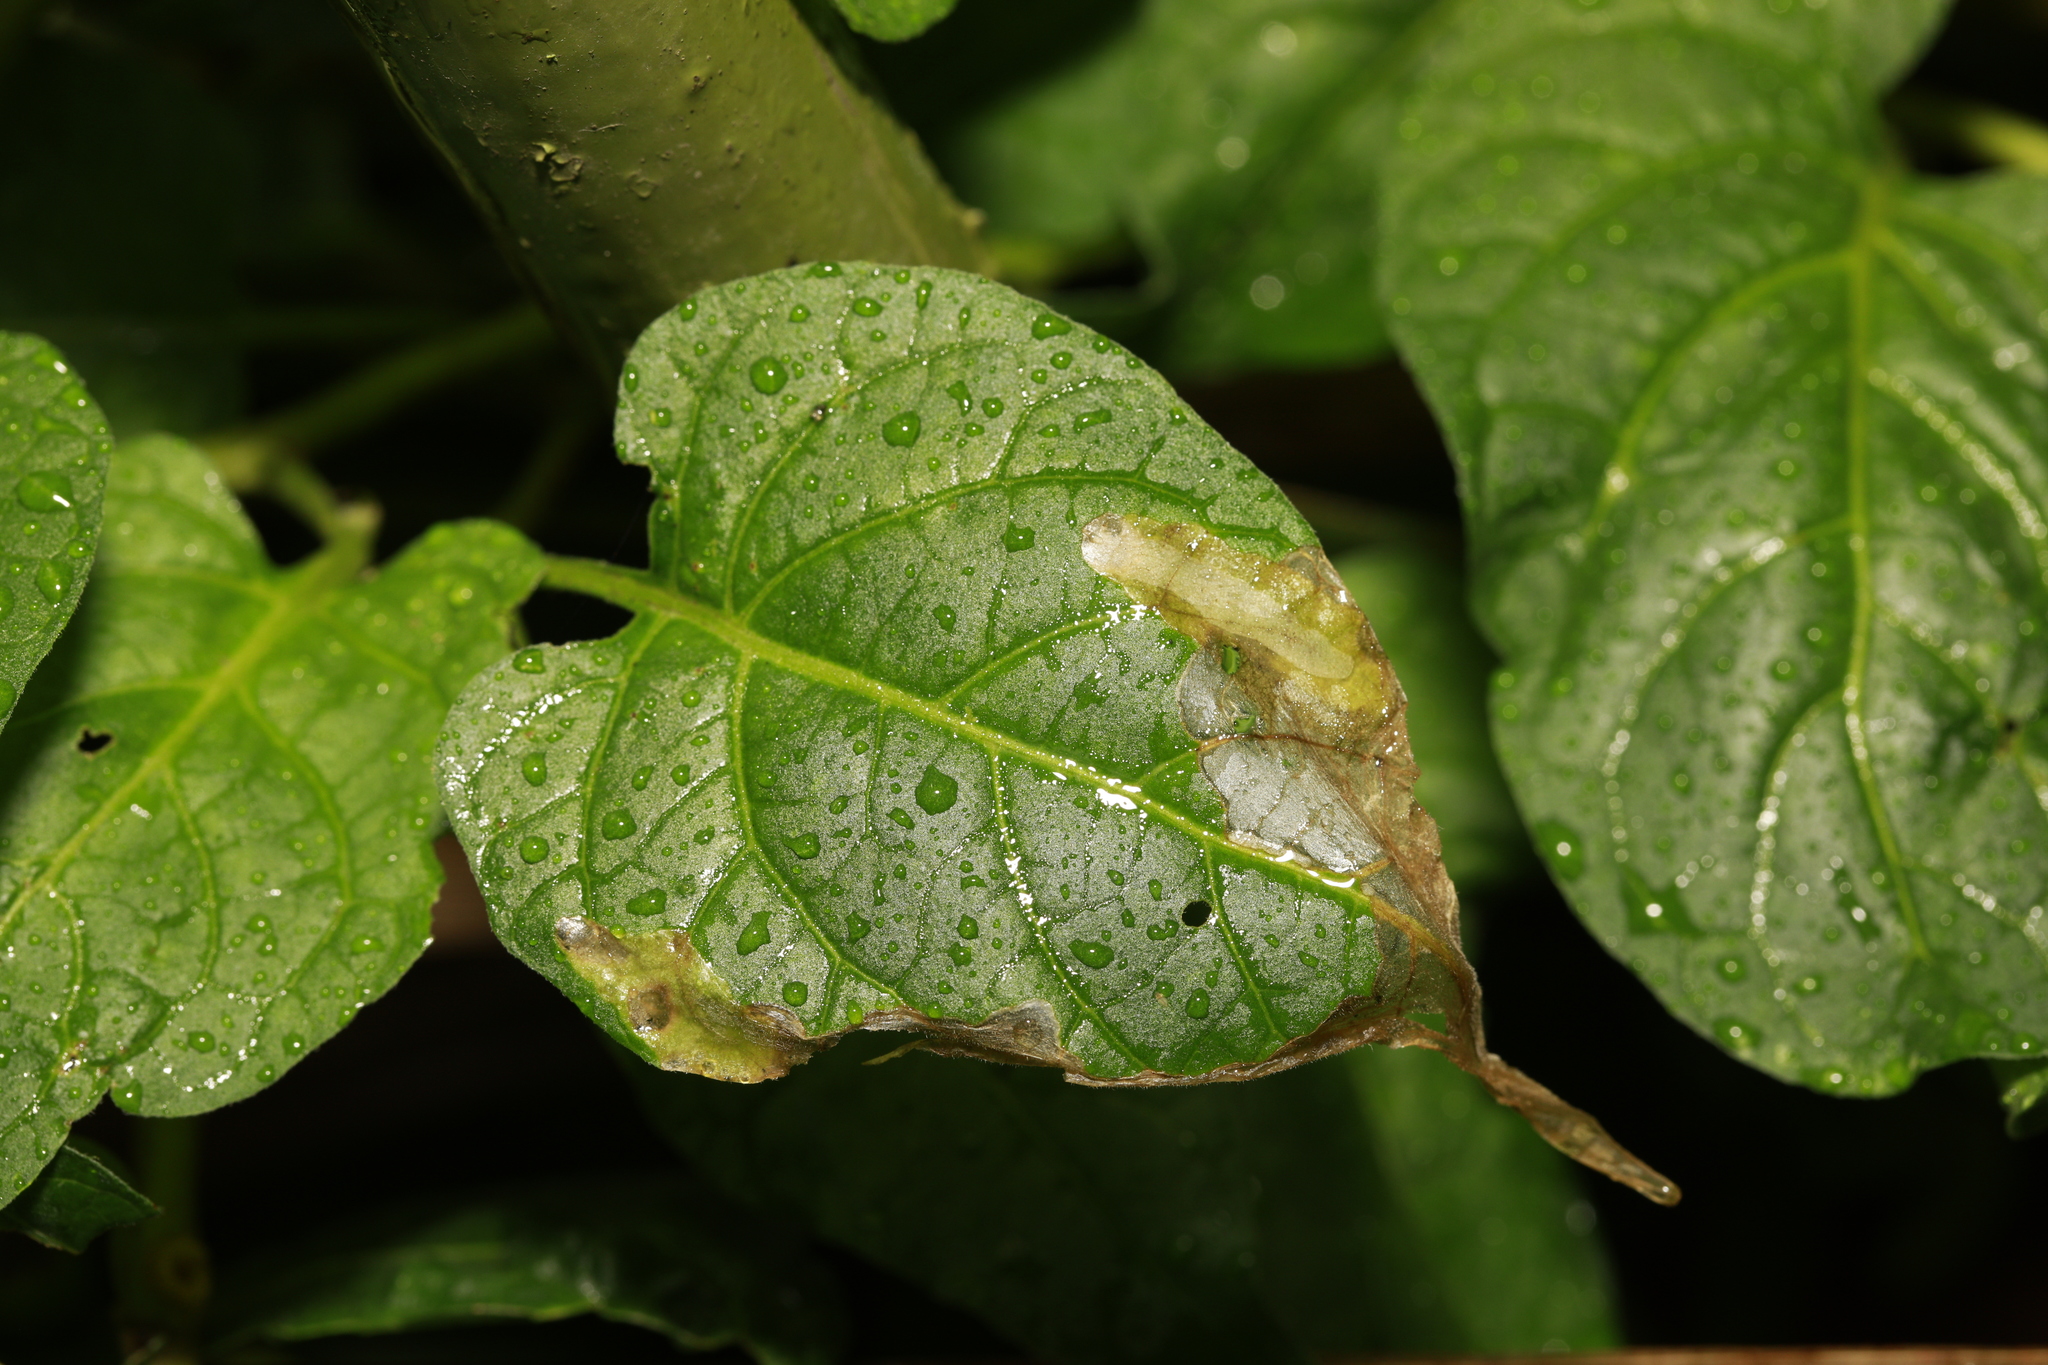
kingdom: Animalia
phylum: Arthropoda
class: Insecta
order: Lepidoptera
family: Glyphipterigidae
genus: Acrolepia
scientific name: Acrolepia pygmaeana
